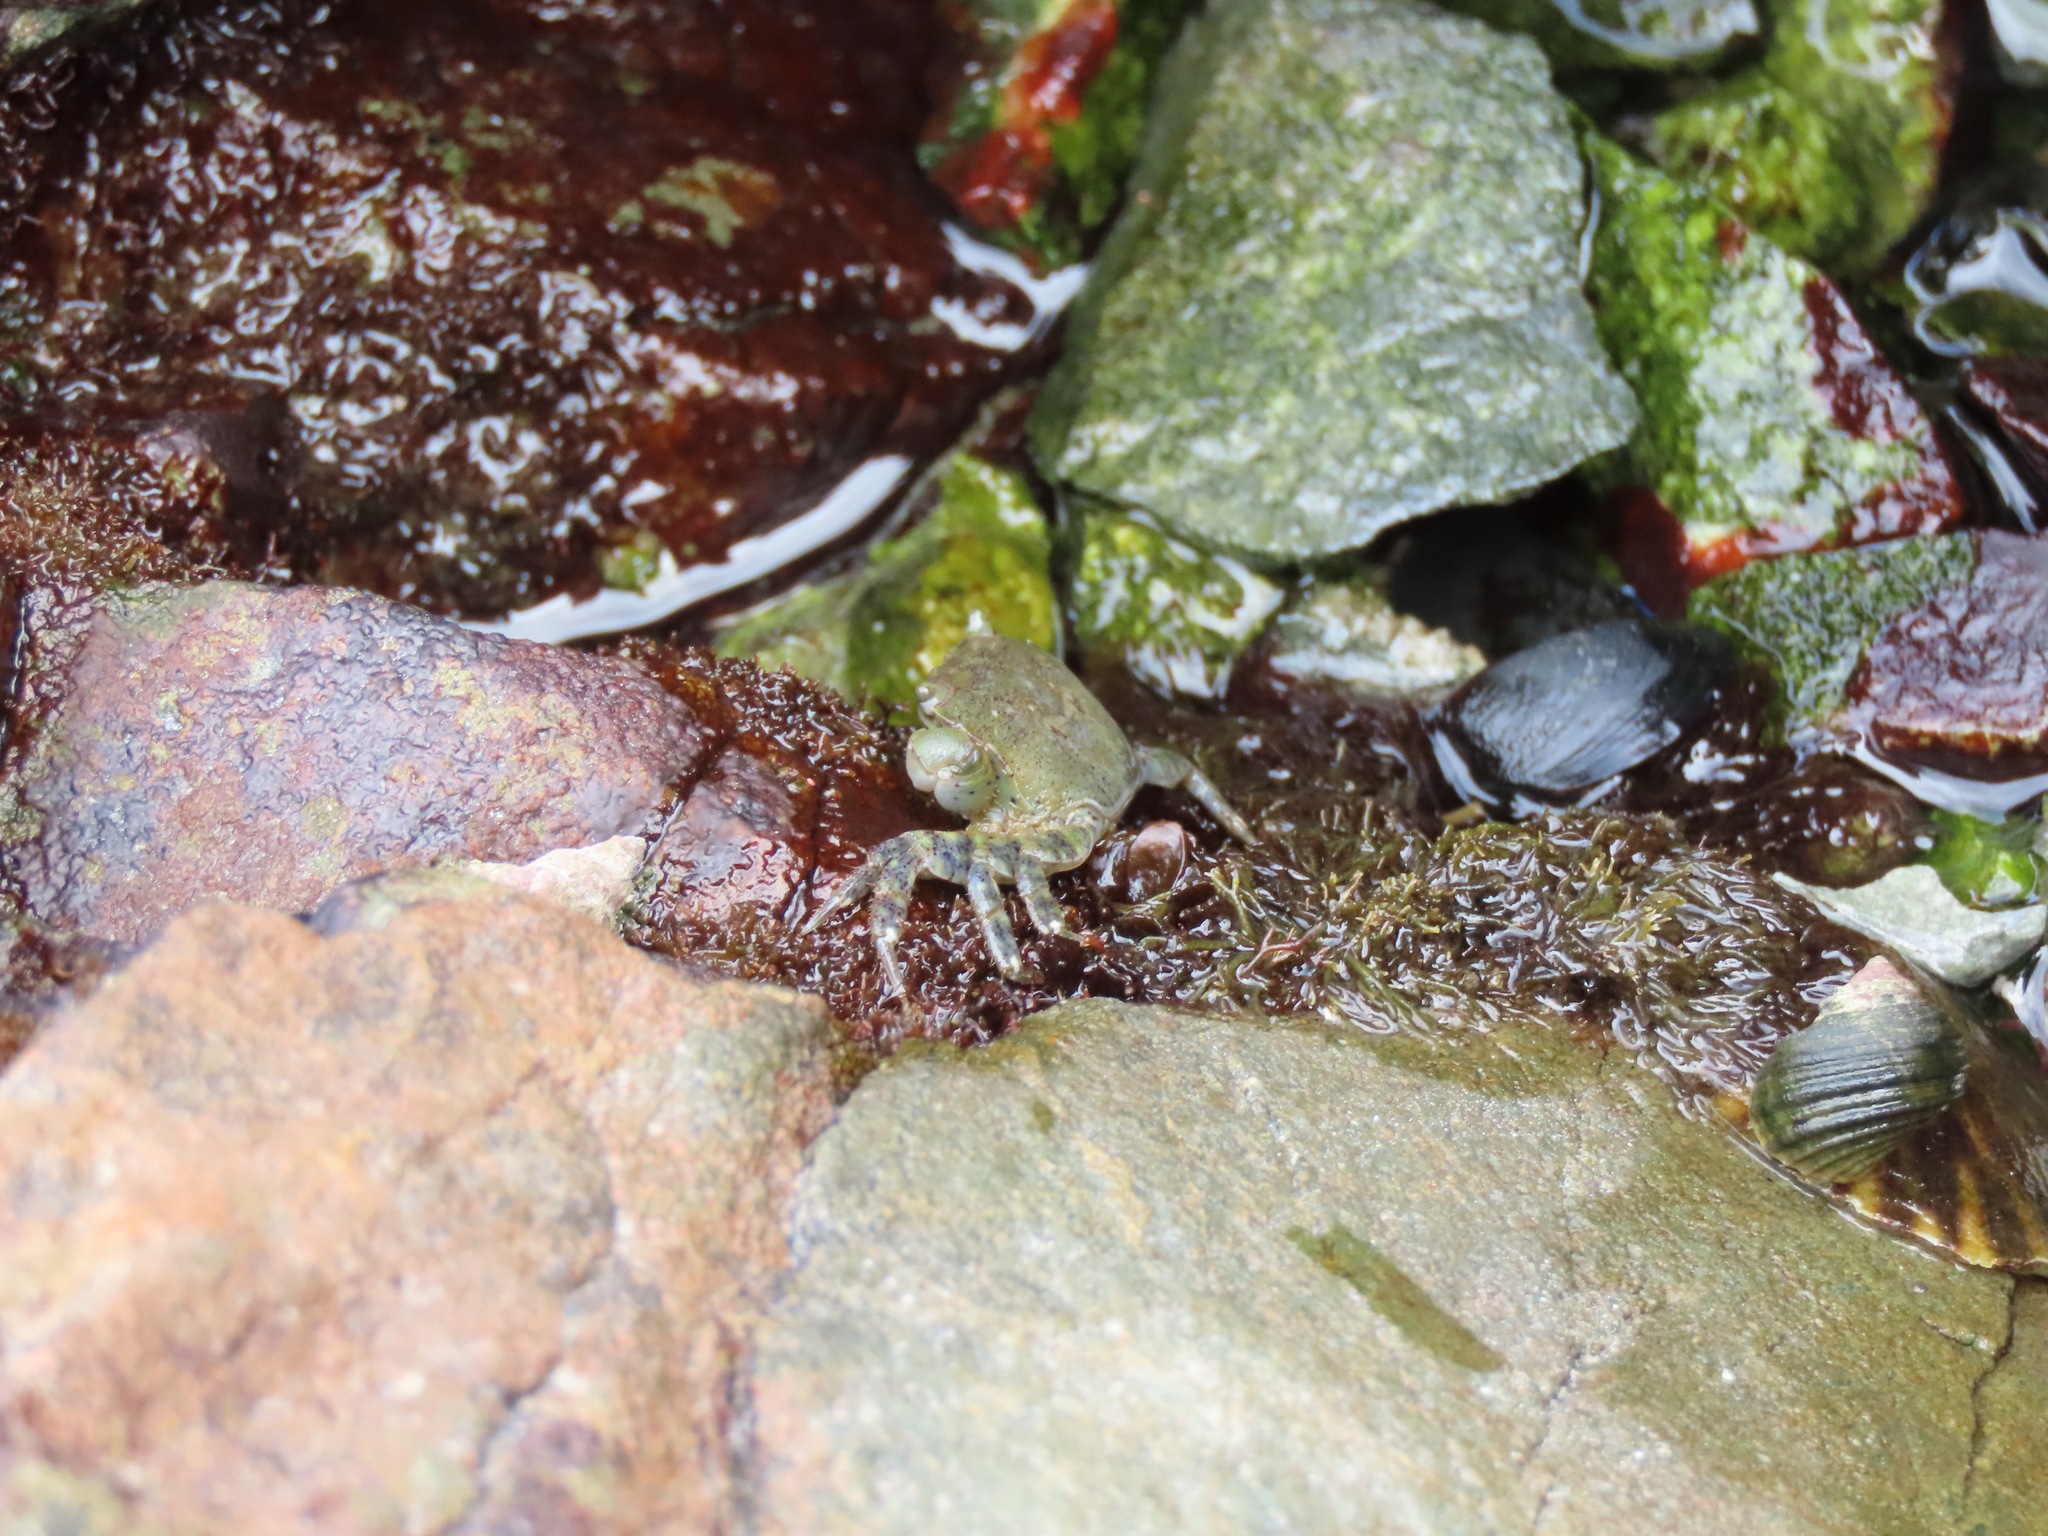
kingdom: Animalia
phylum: Arthropoda
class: Malacostraca
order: Decapoda
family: Varunidae
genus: Hemigrapsus
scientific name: Hemigrapsus oregonensis
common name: Yellow shore crab
